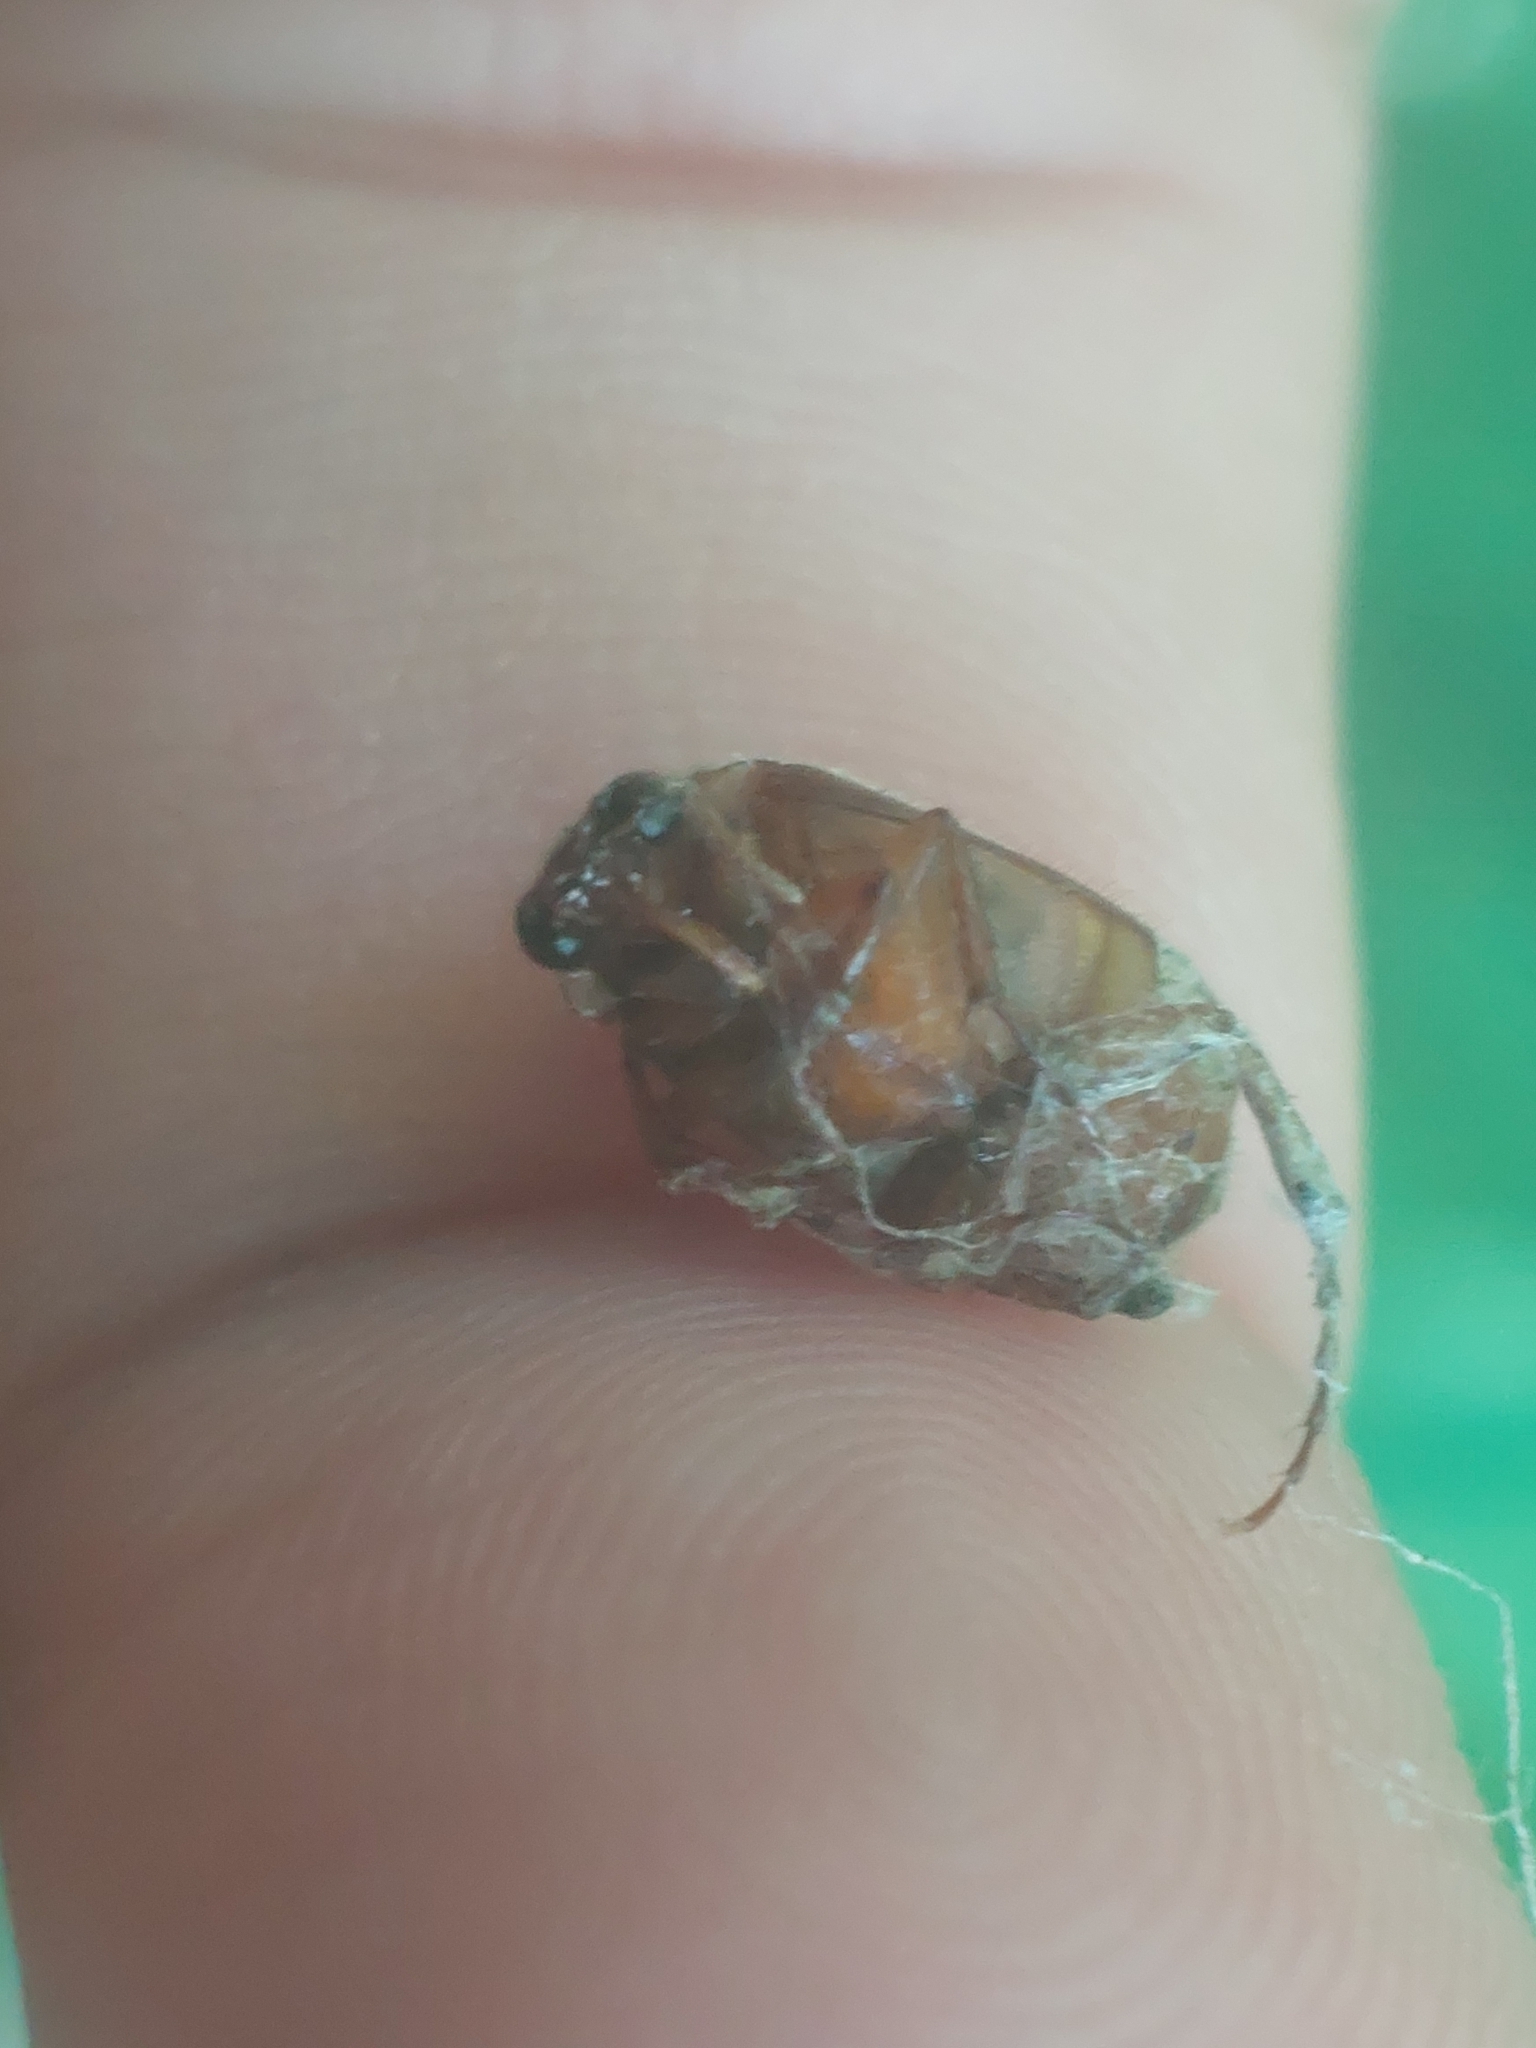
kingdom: Animalia
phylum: Arthropoda
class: Insecta
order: Coleoptera
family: Scarabaeidae
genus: Serica
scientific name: Serica brunnea
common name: Brown chafer
